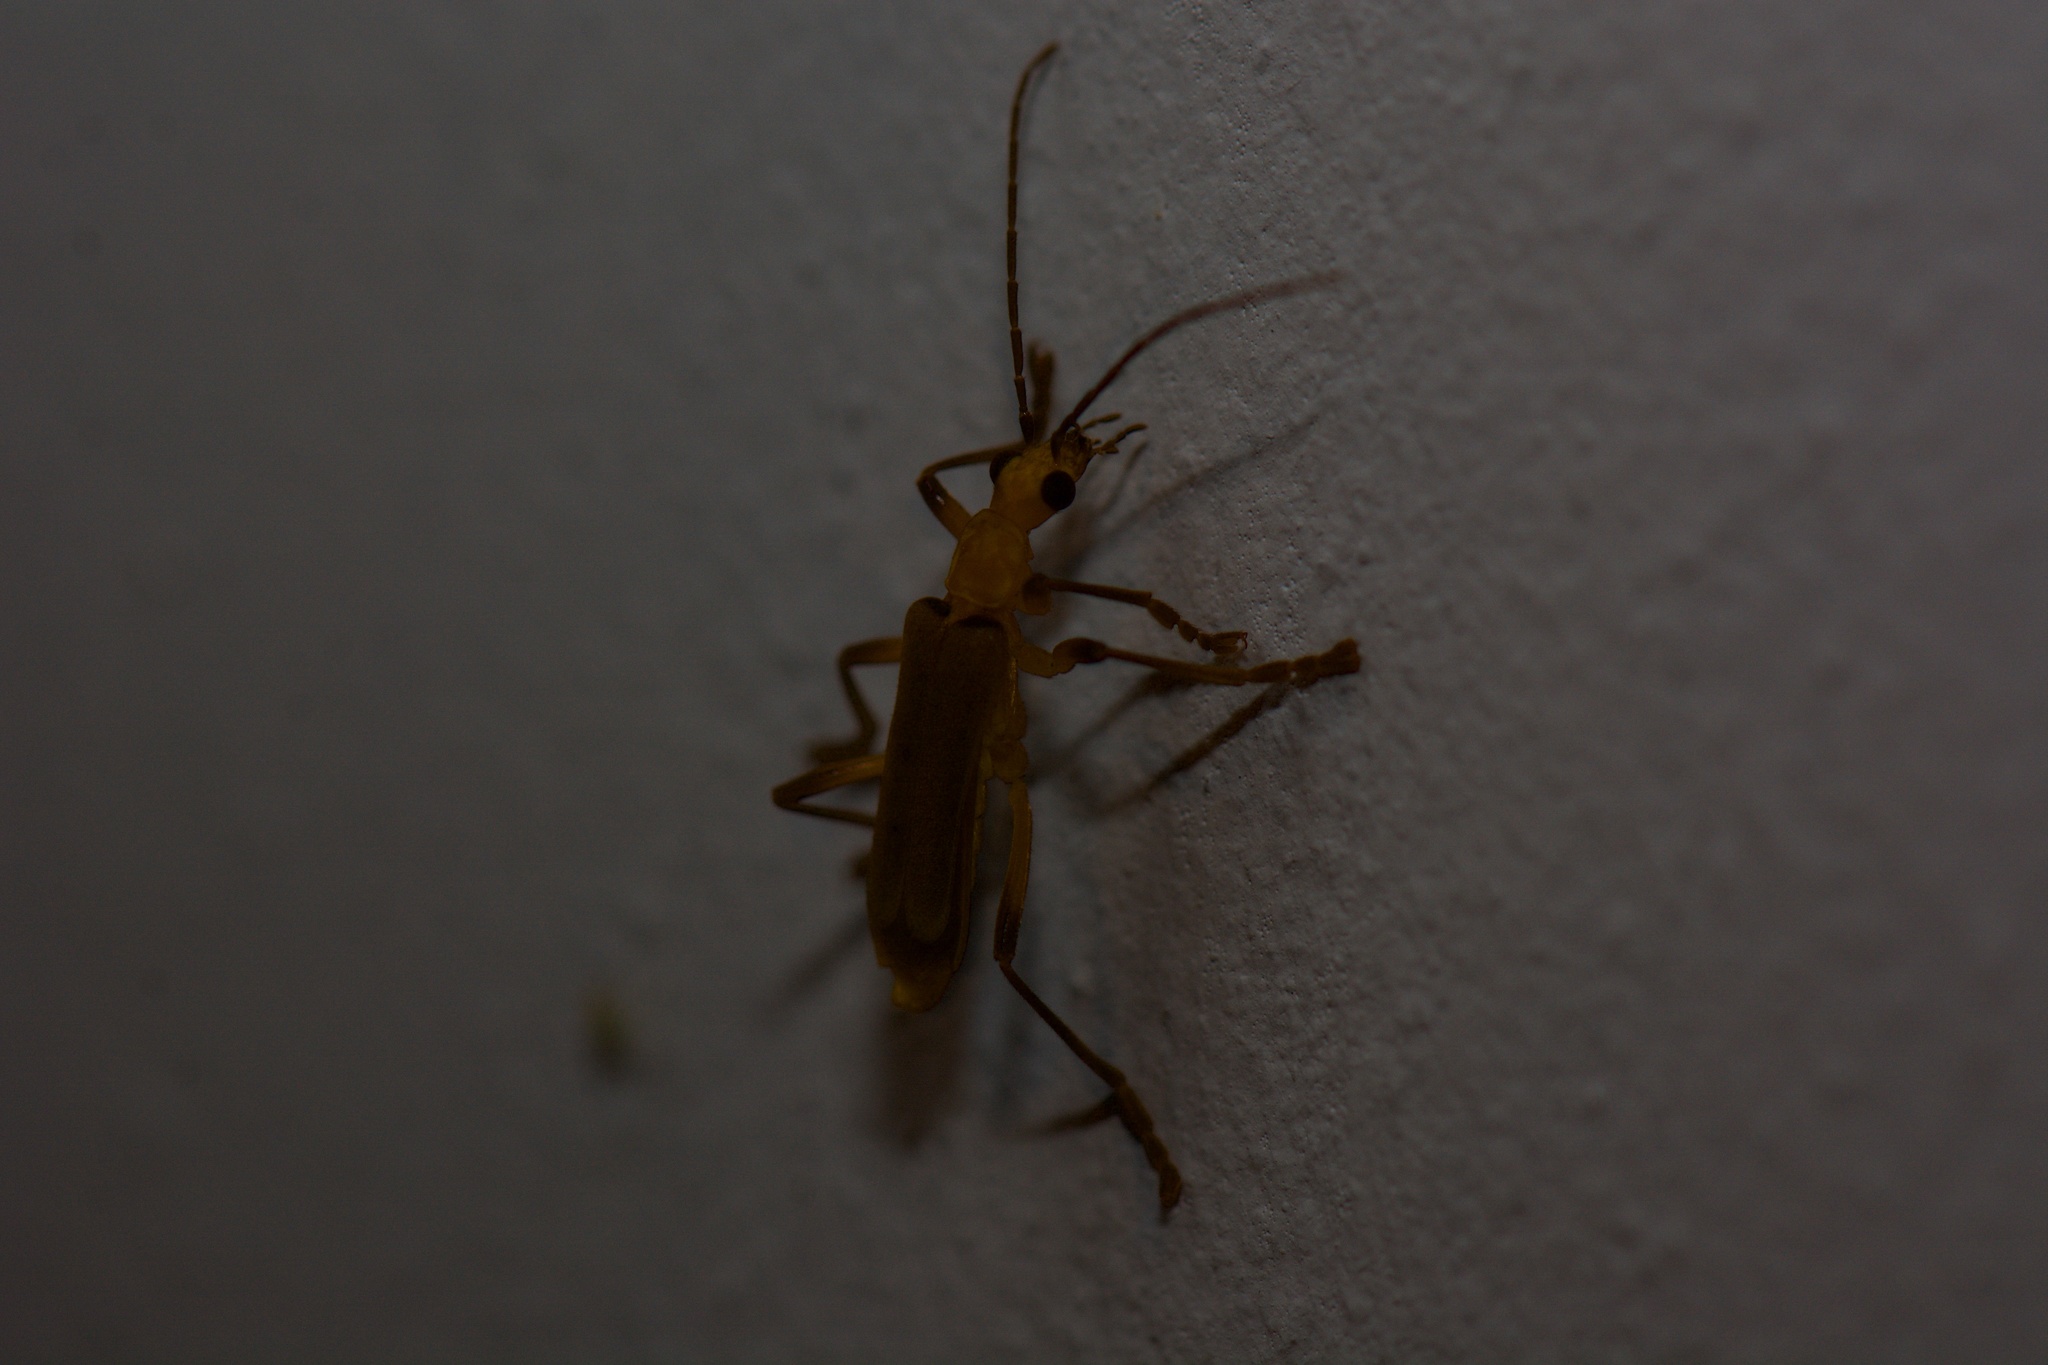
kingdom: Animalia
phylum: Arthropoda
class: Insecta
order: Coleoptera
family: Cantharidae
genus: Chauliognathus
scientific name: Chauliognathus
